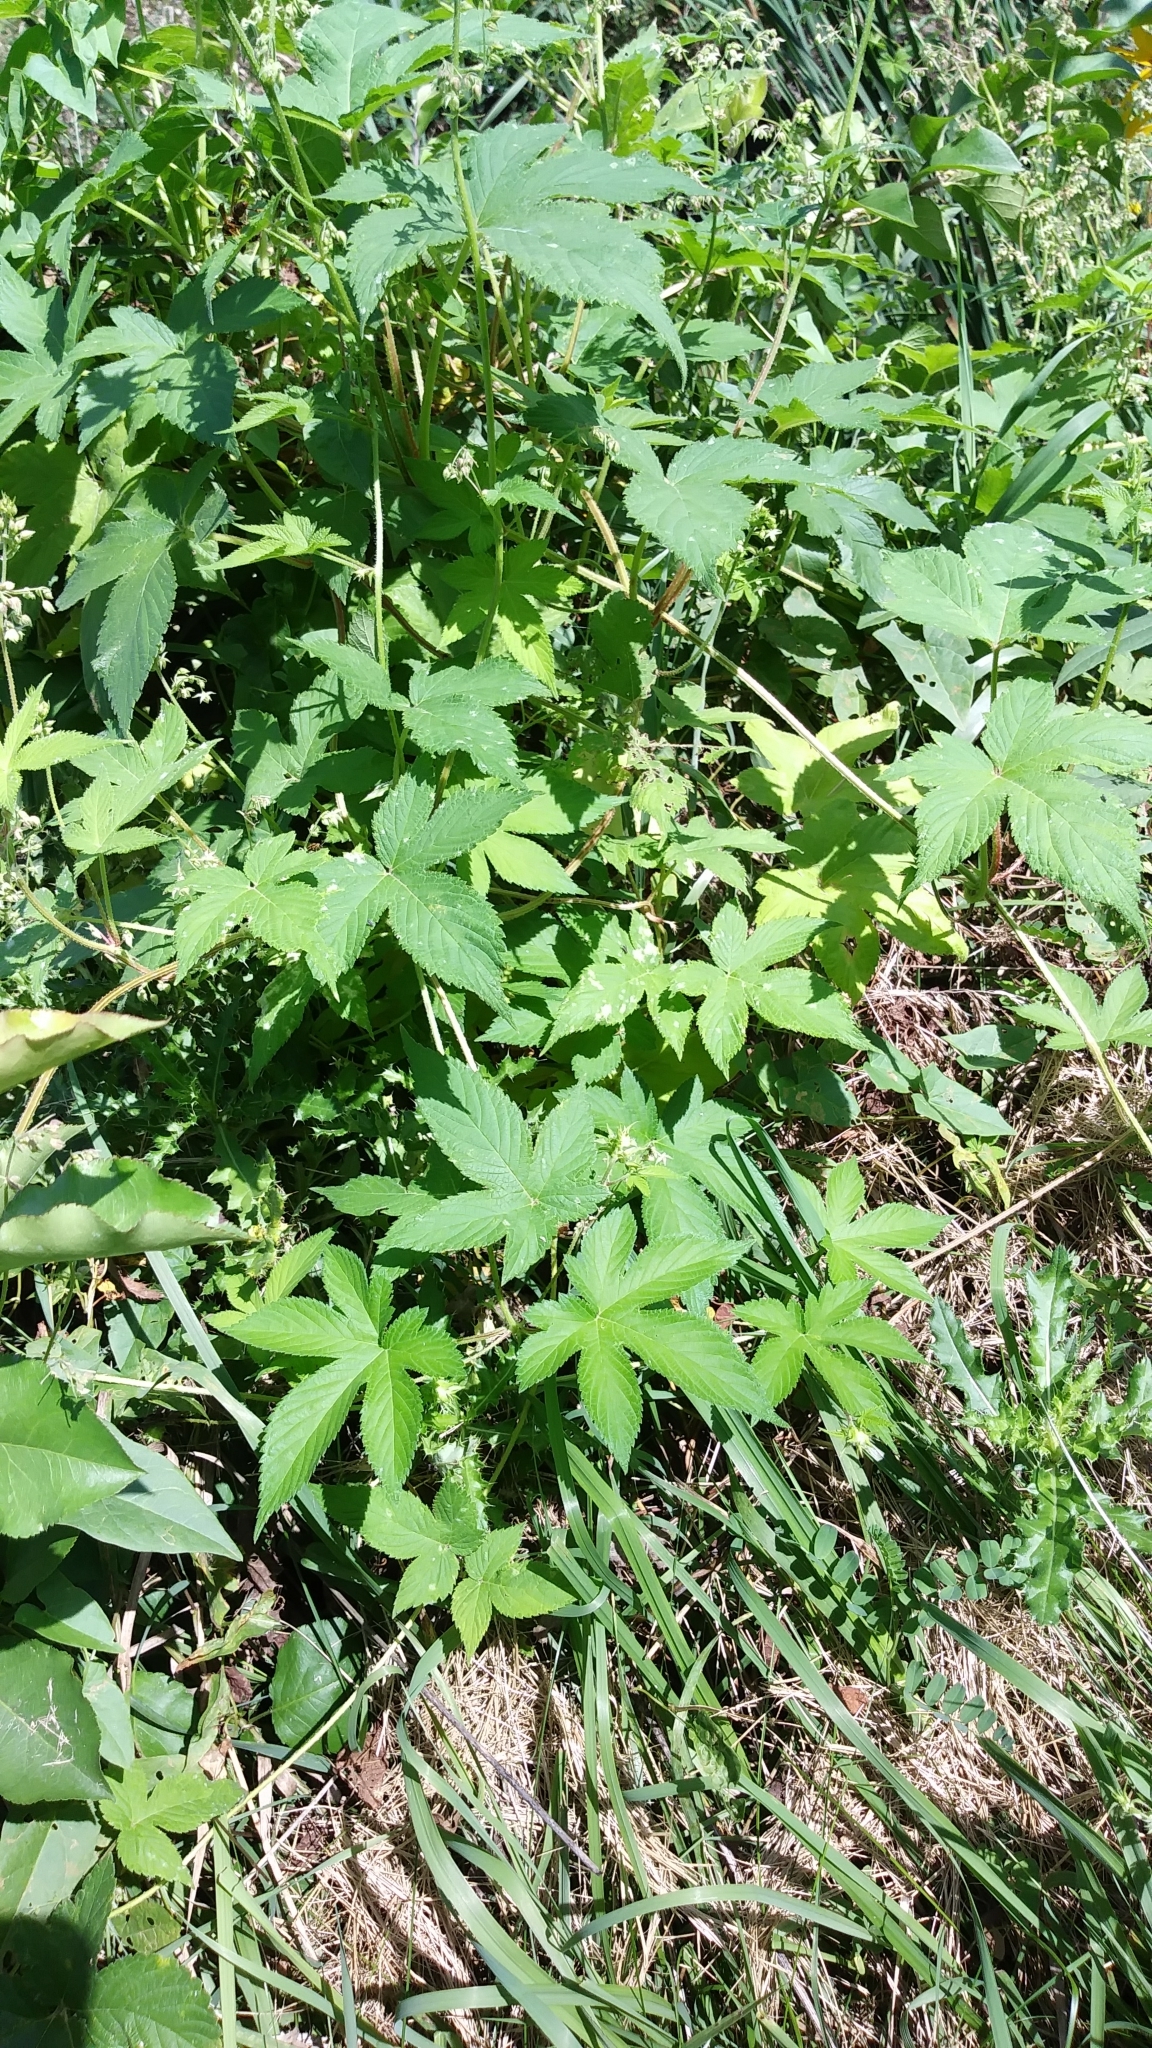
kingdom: Plantae
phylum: Tracheophyta
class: Magnoliopsida
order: Rosales
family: Cannabaceae
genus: Humulus
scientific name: Humulus scandens
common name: Japanese hop
